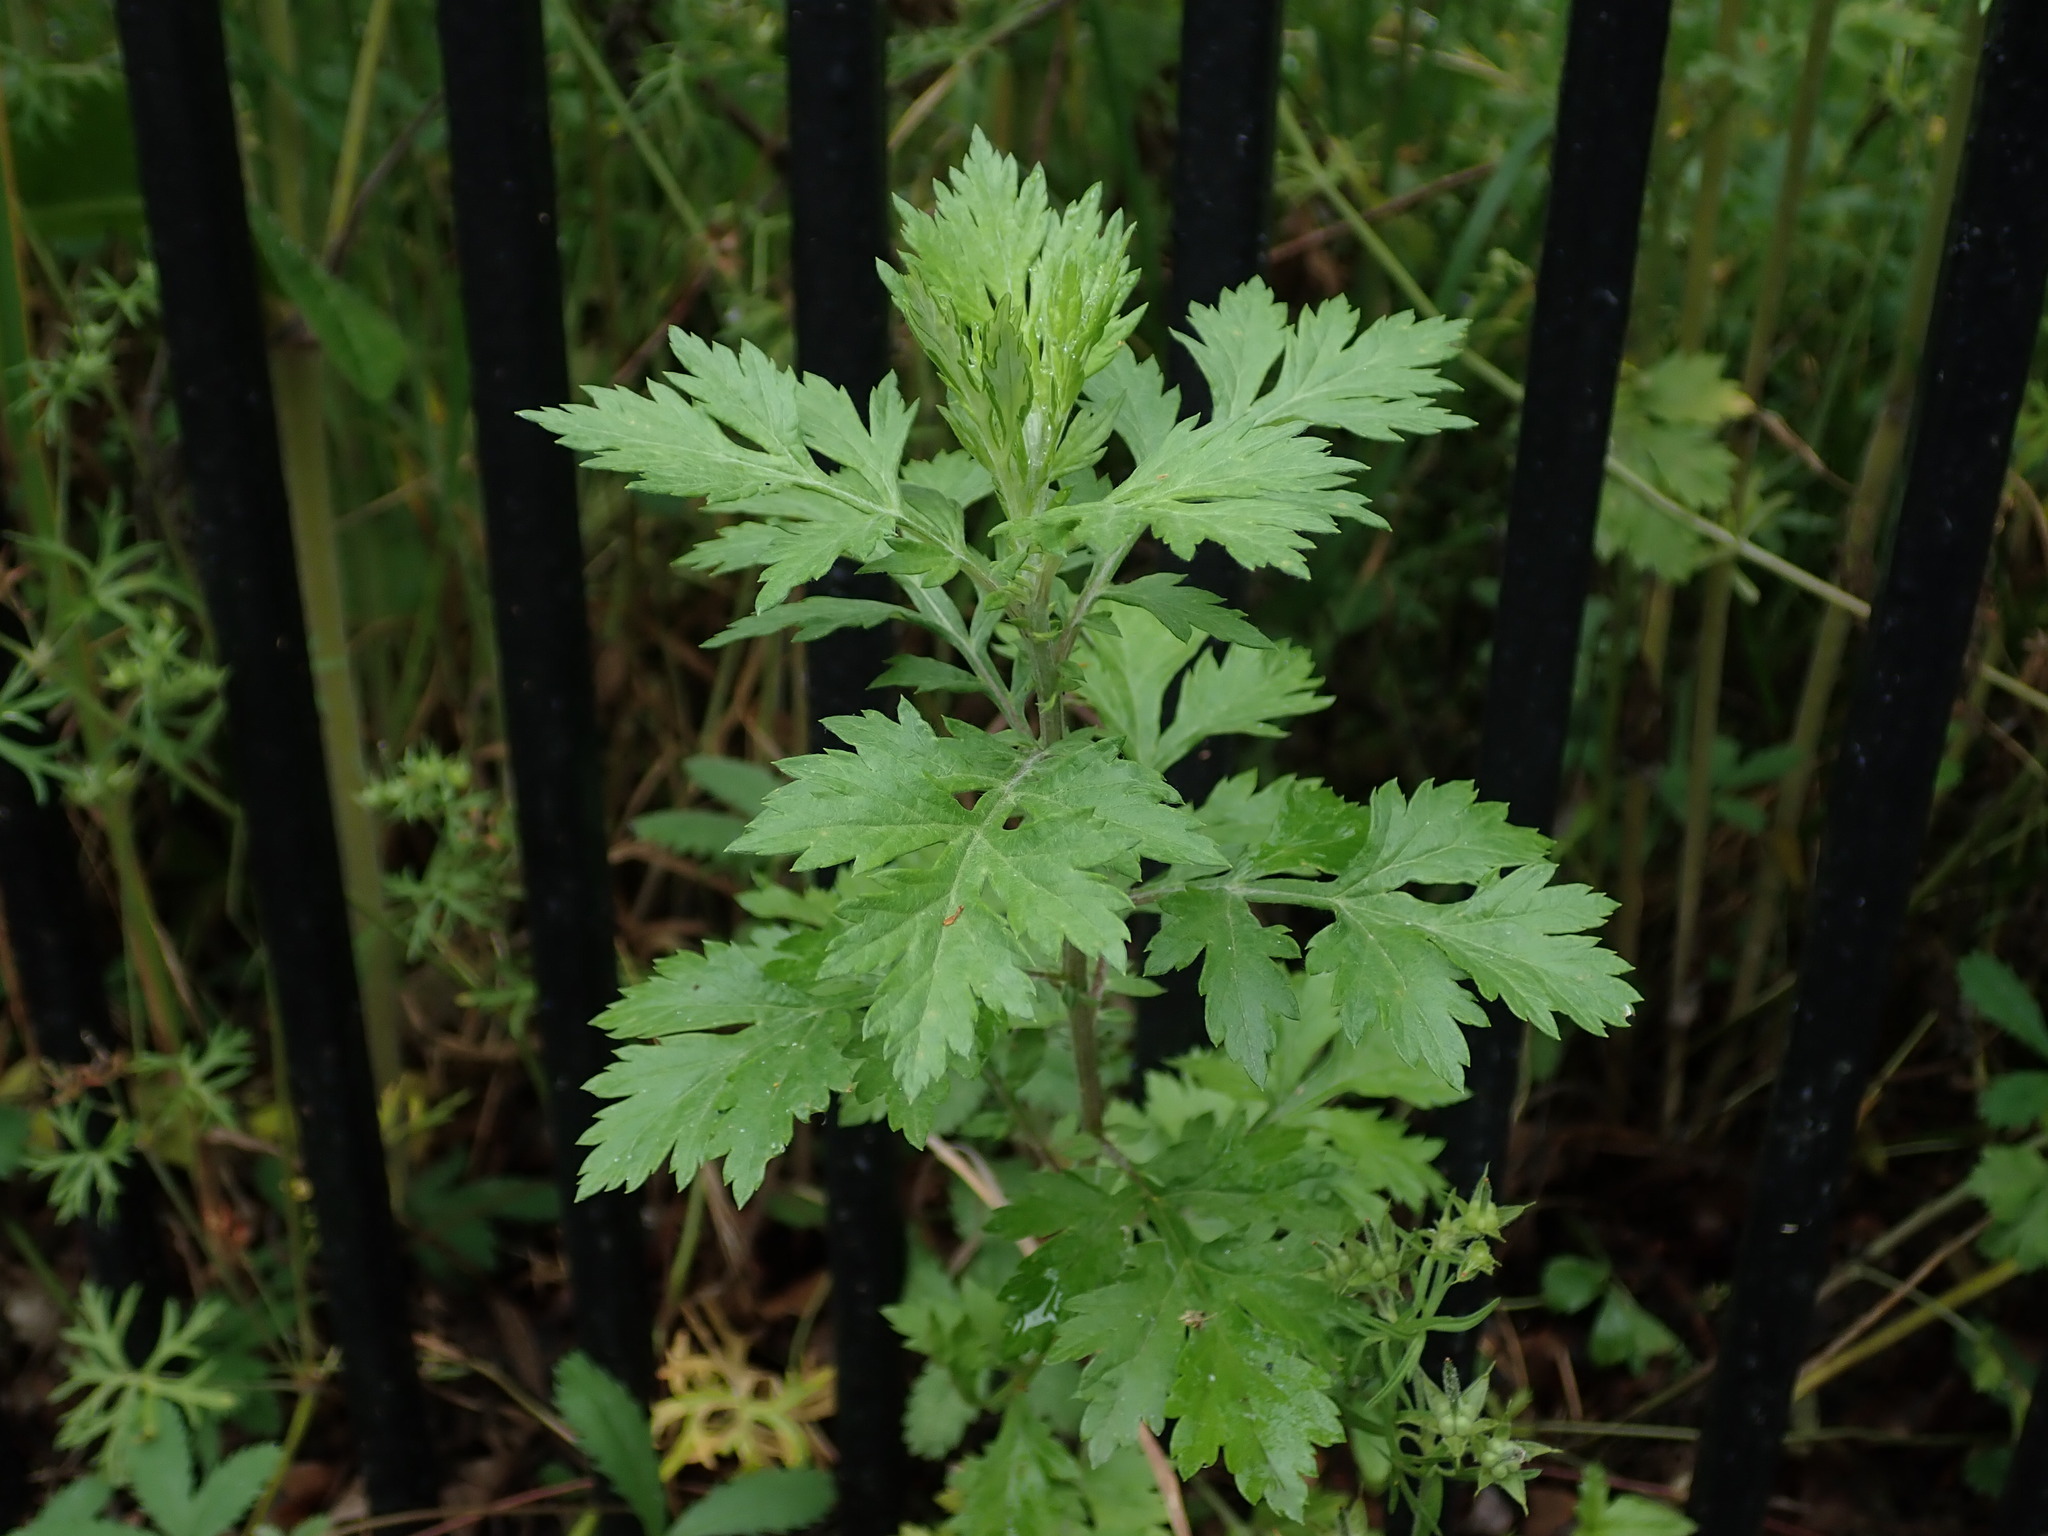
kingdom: Plantae
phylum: Tracheophyta
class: Magnoliopsida
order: Asterales
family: Asteraceae
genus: Artemisia
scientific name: Artemisia vulgaris
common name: Mugwort
